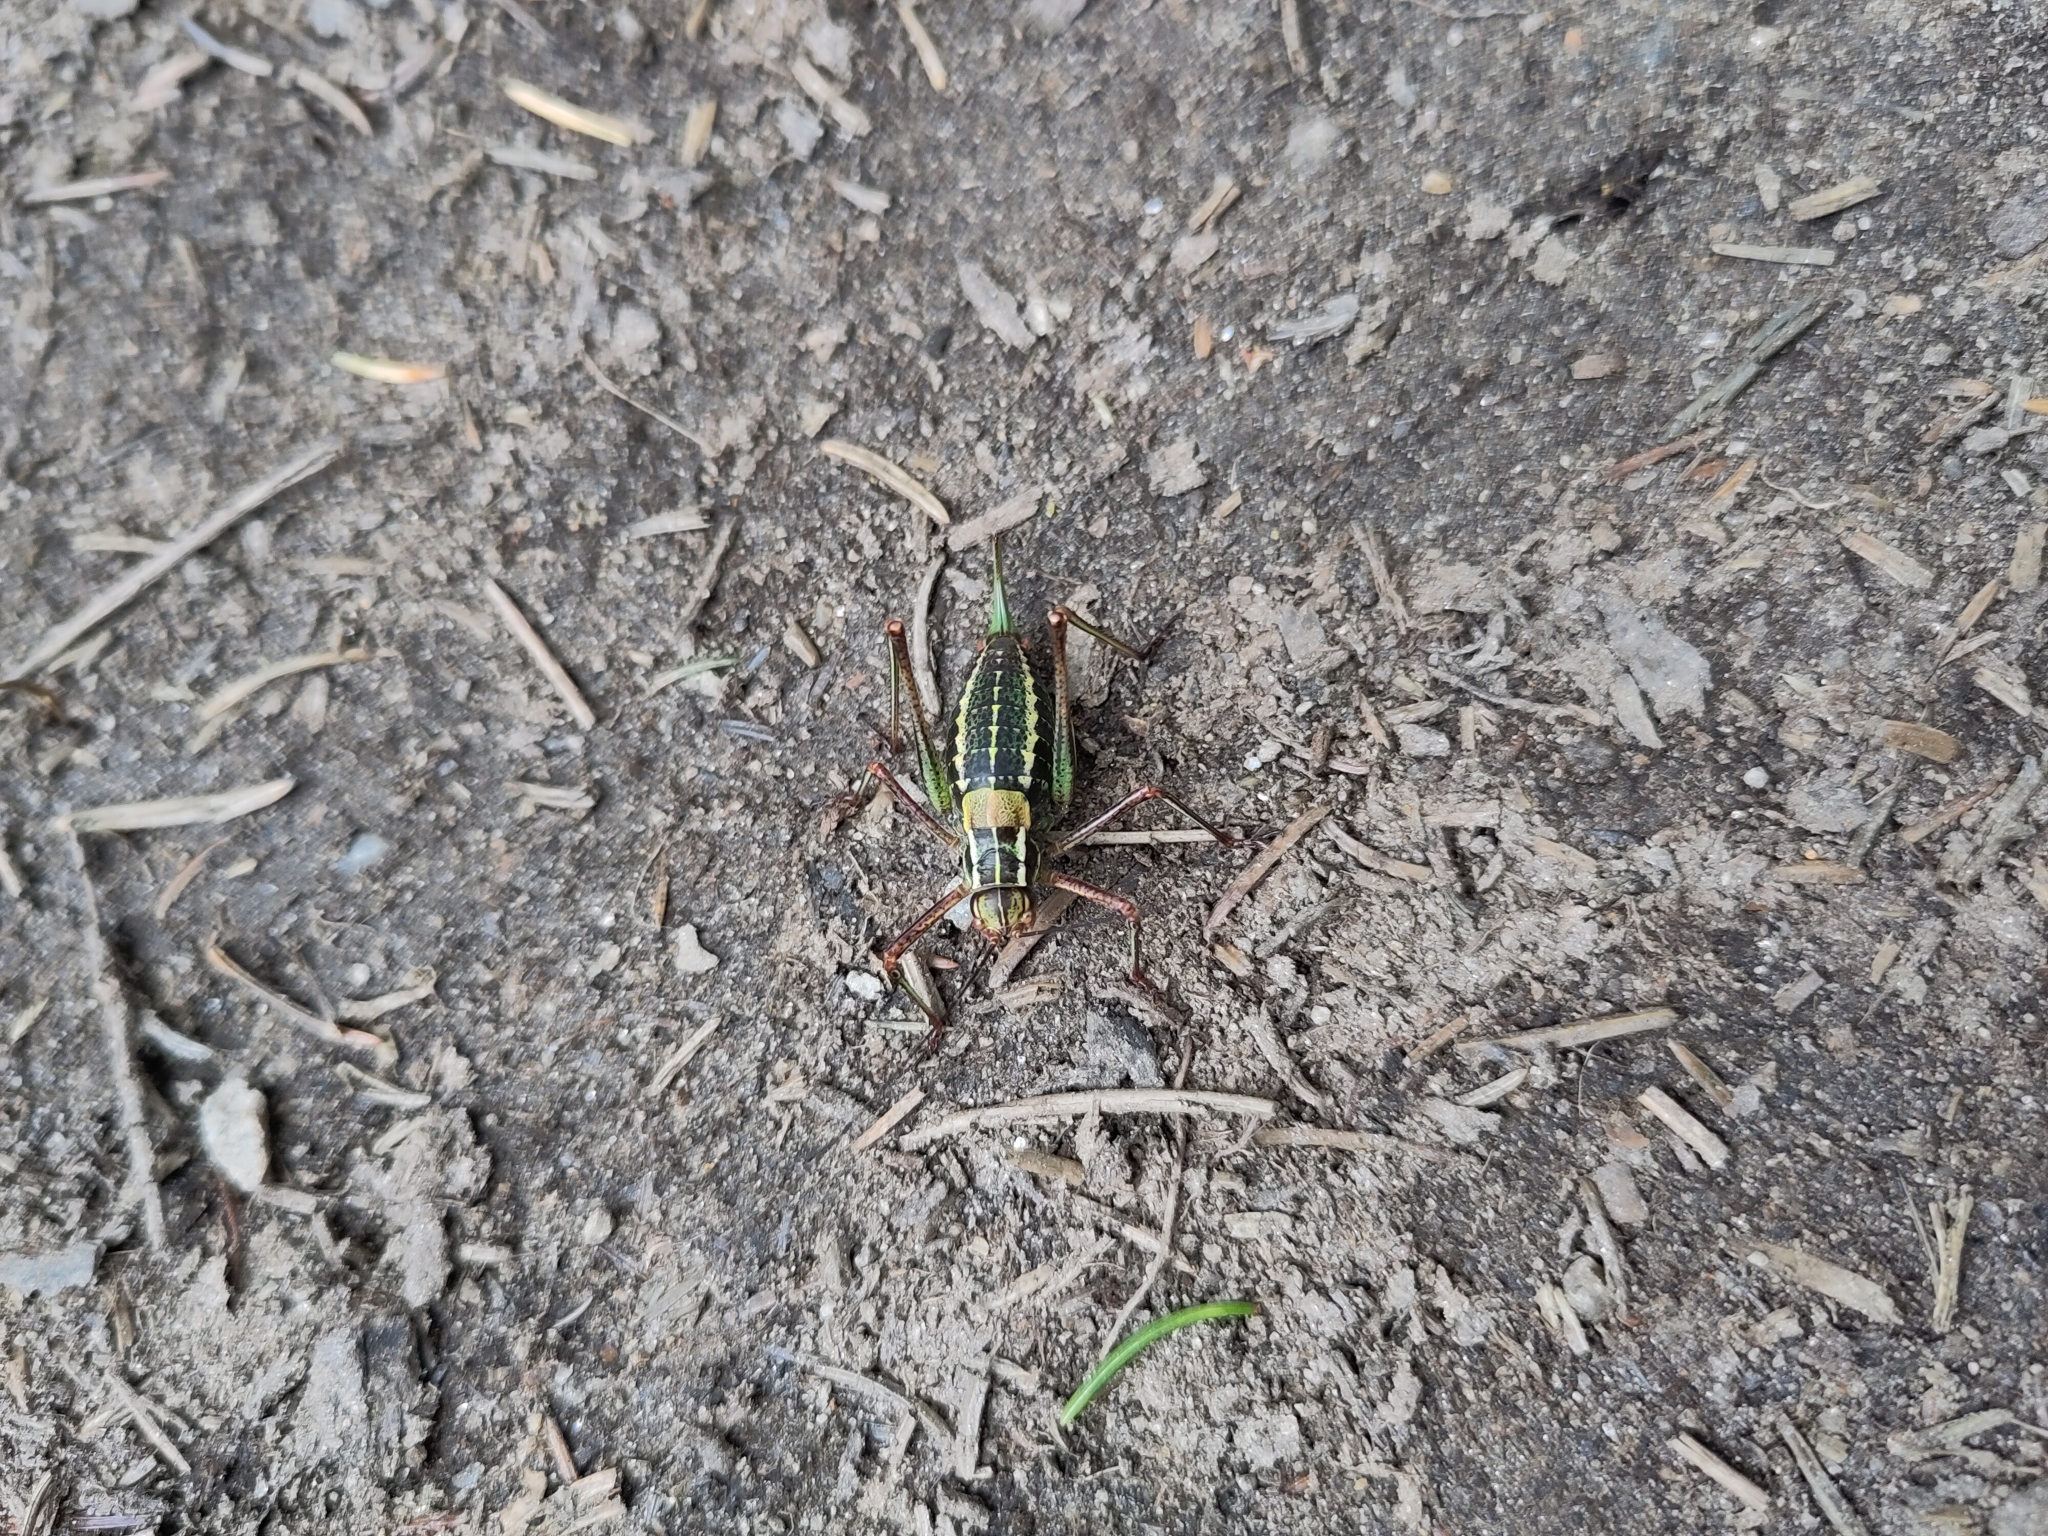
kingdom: Animalia
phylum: Arthropoda
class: Insecta
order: Orthoptera
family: Tettigoniidae
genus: Barbitistes
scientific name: Barbitistes constrictus
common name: Eastern saw-tailed bush cricket
